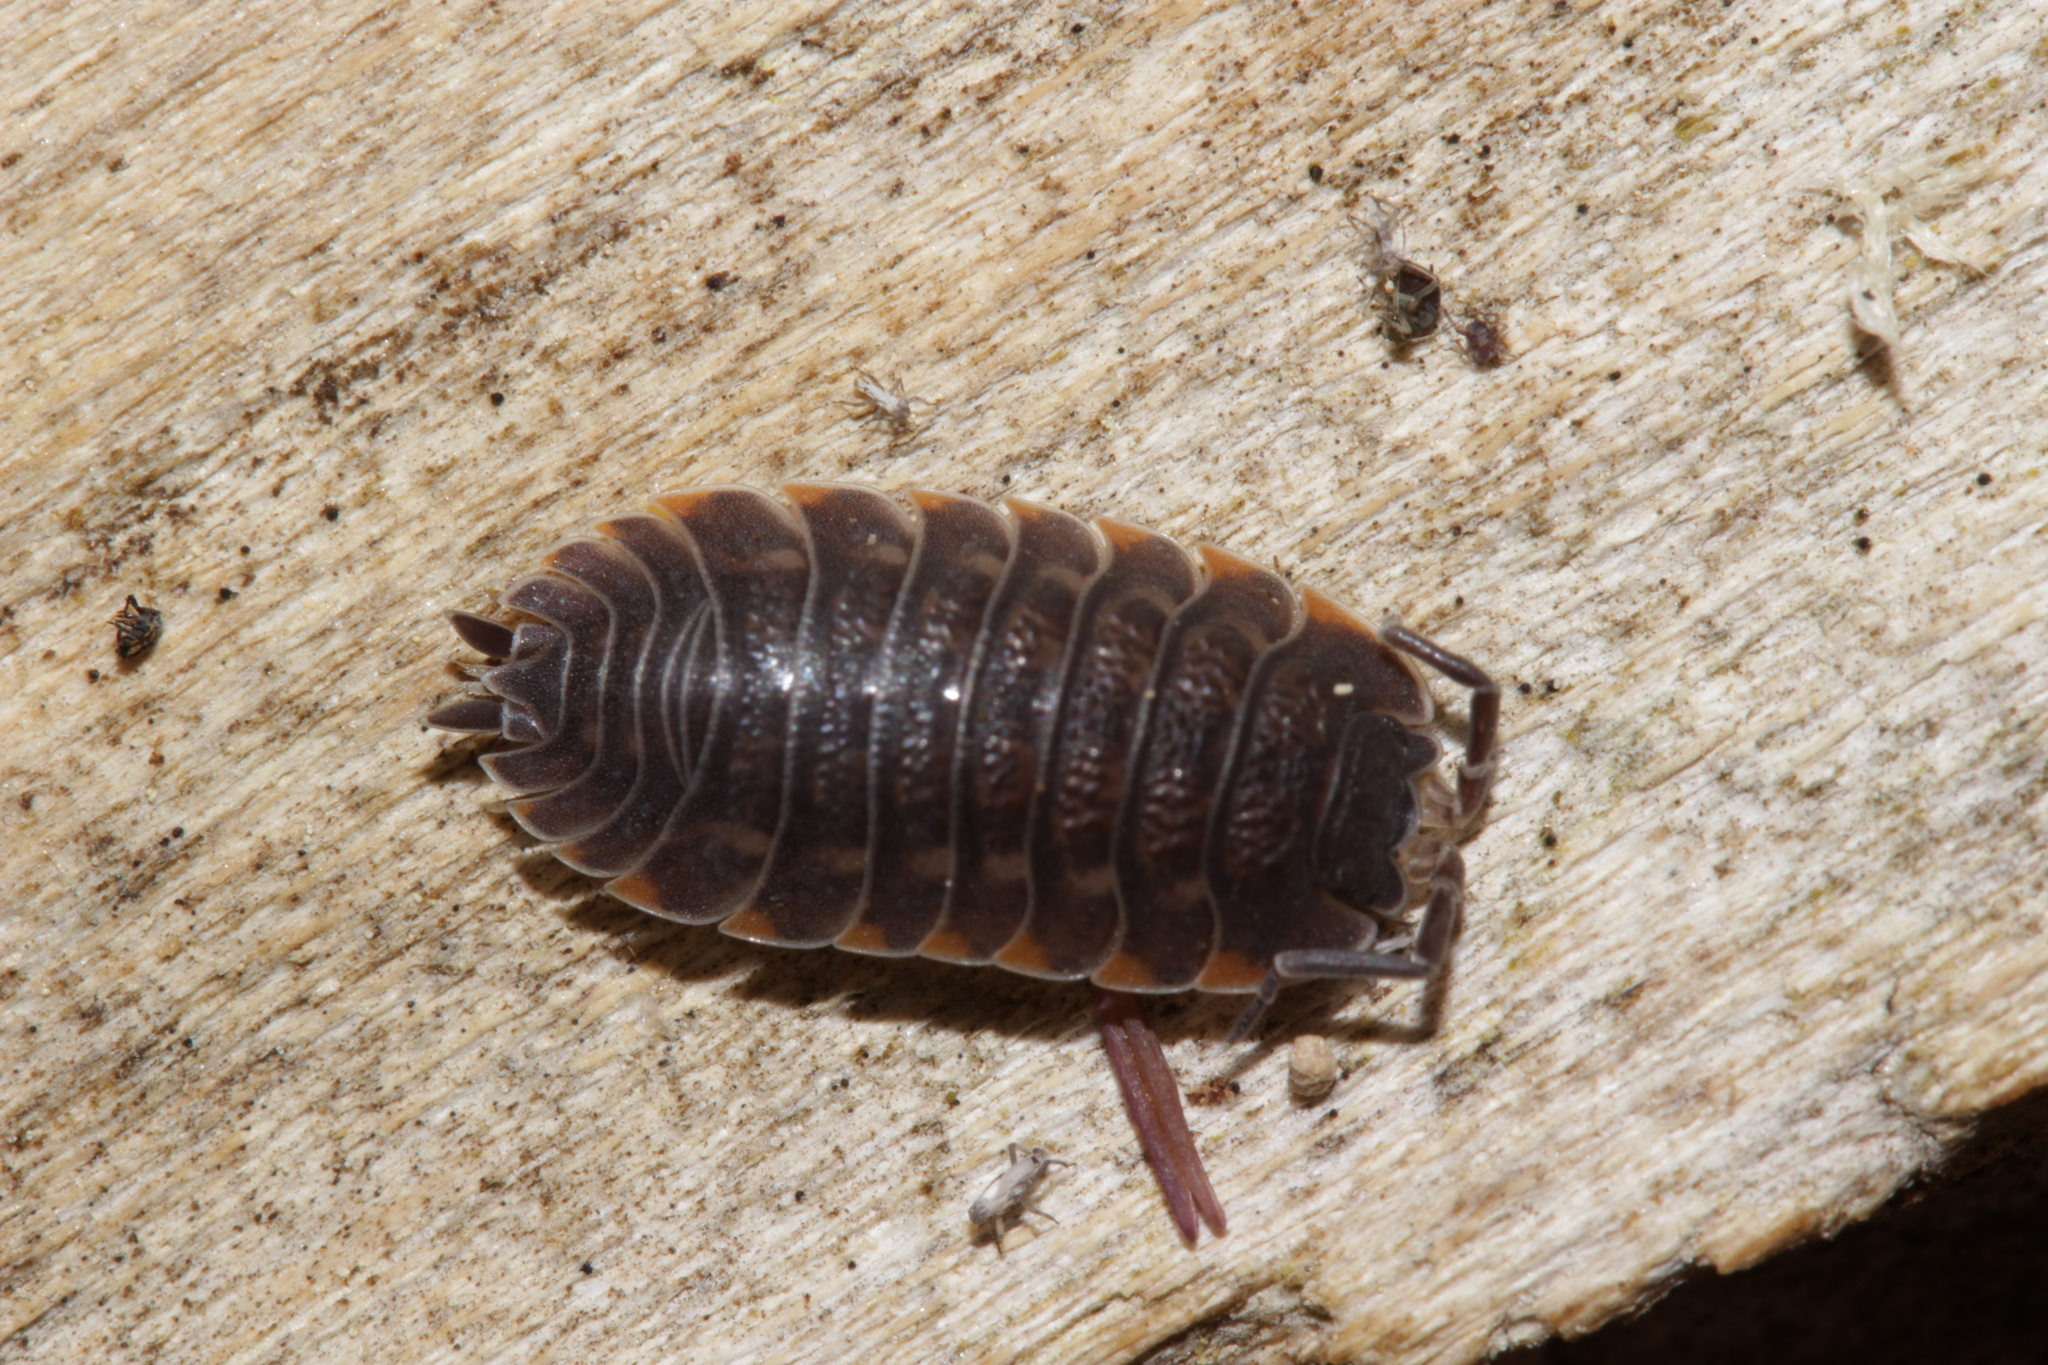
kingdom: Animalia
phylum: Arthropoda
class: Malacostraca
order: Isopoda
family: Trachelipodidae
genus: Trachelipus
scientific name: Trachelipus ratzeburgii
